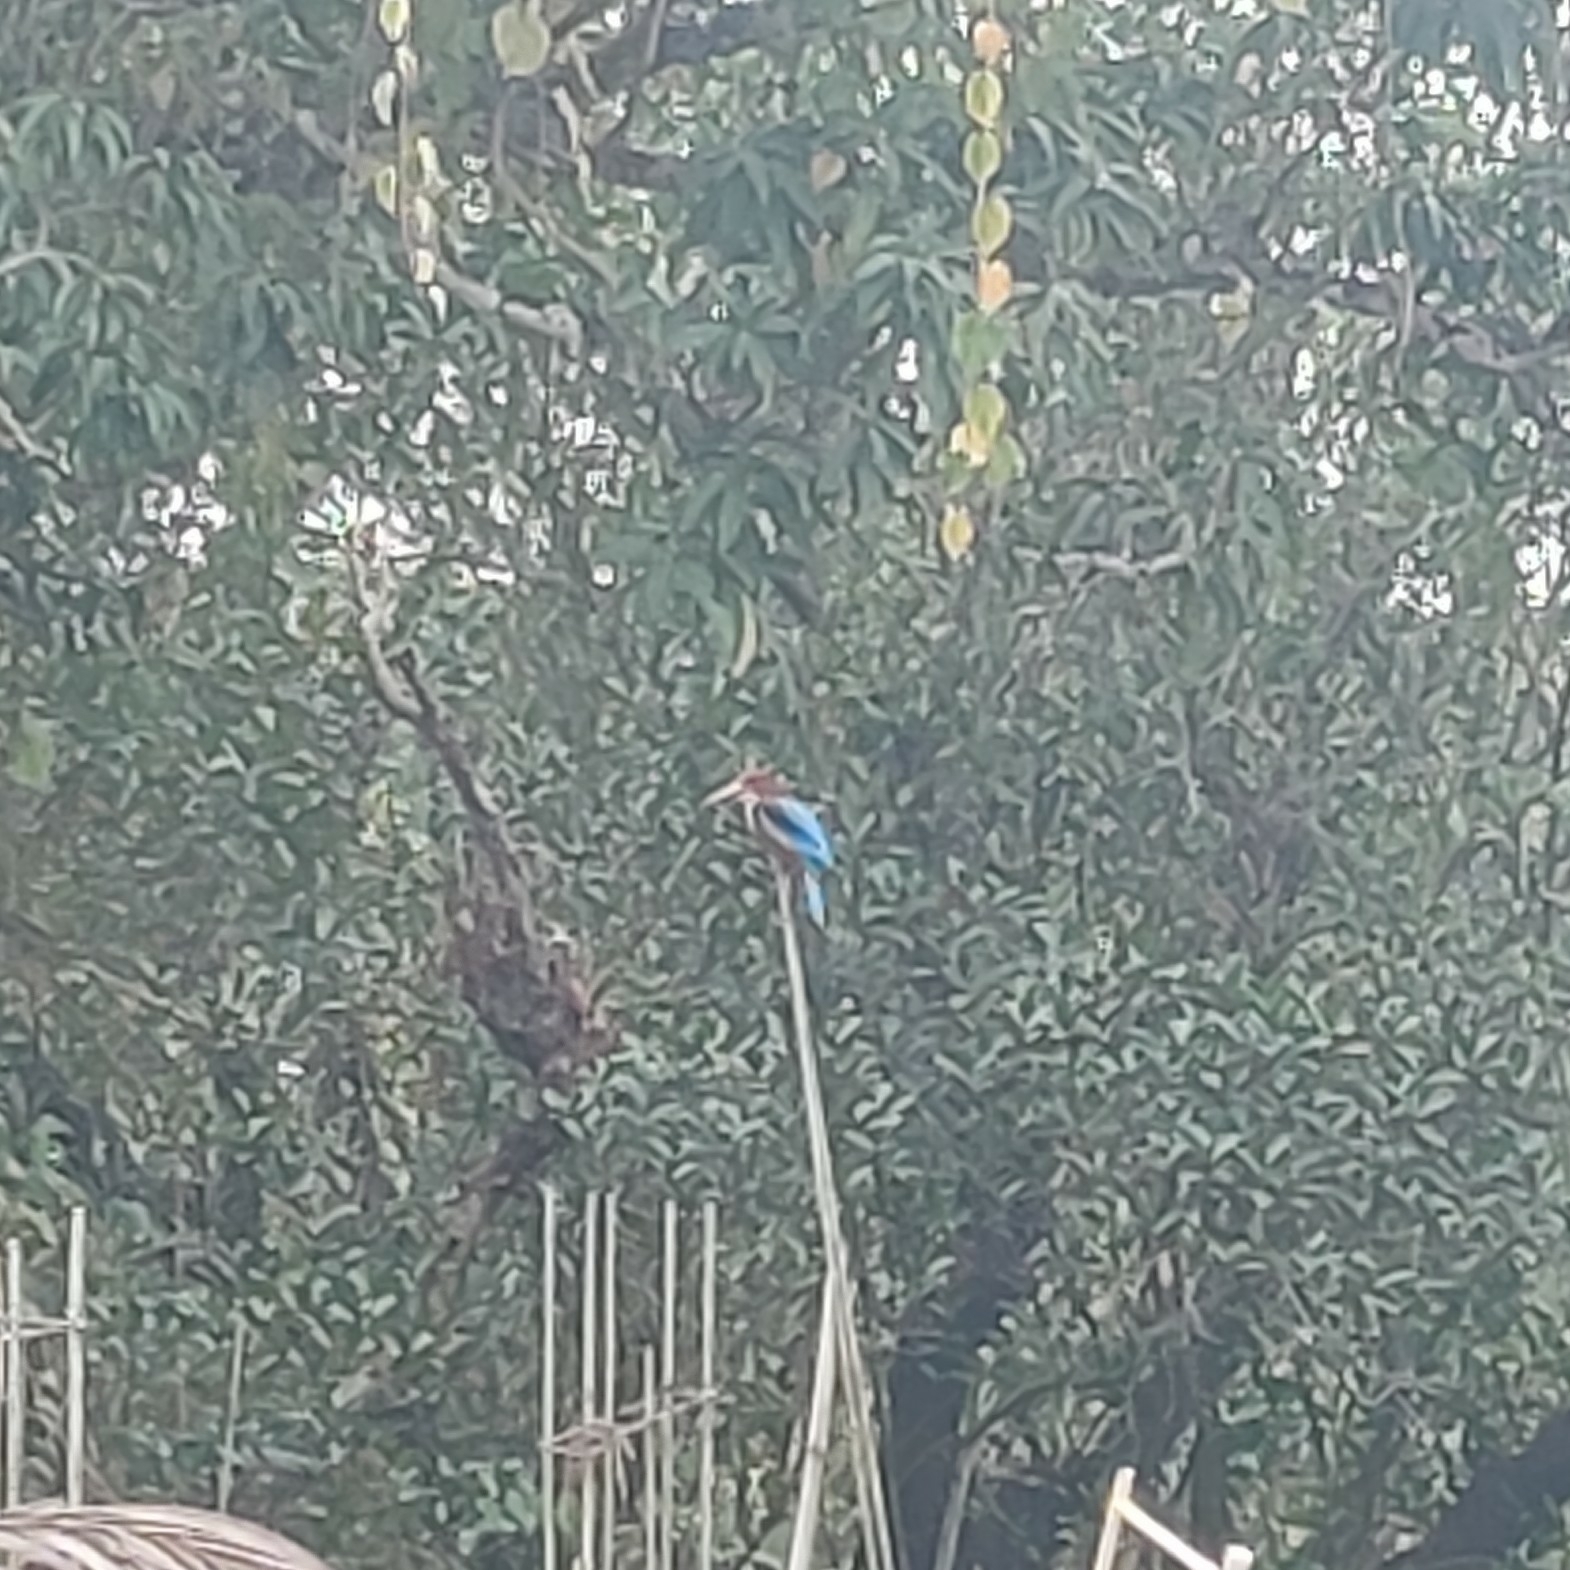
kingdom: Animalia
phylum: Chordata
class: Aves
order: Coraciiformes
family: Alcedinidae
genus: Halcyon
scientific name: Halcyon smyrnensis
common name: White-throated kingfisher
